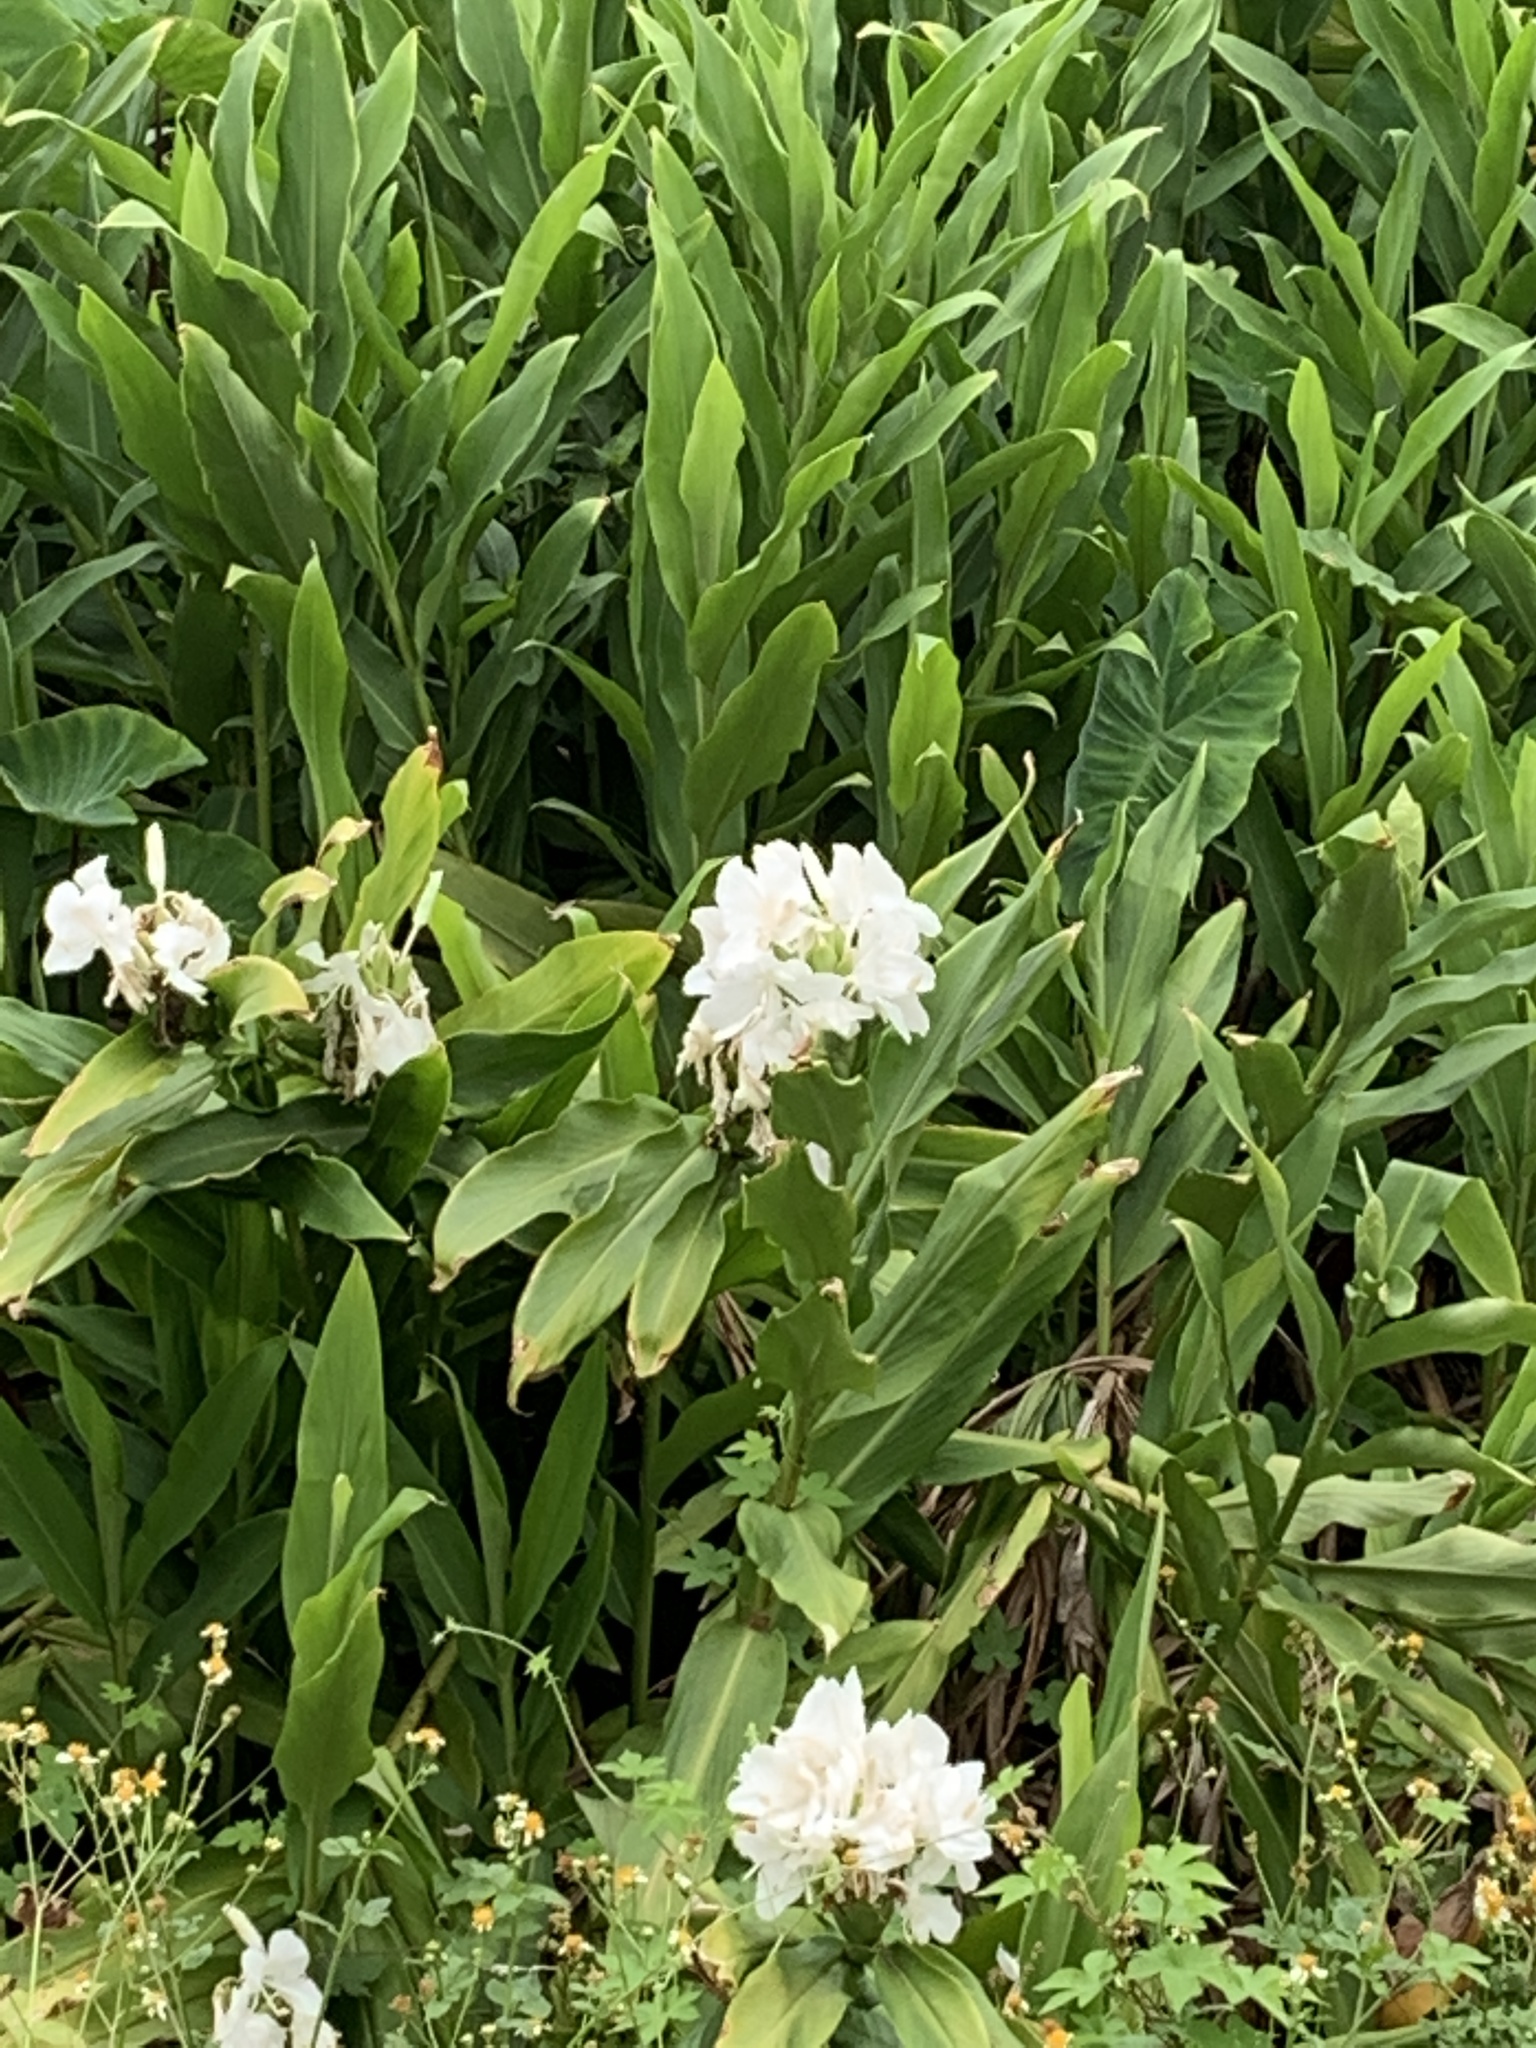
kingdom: Plantae
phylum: Tracheophyta
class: Liliopsida
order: Zingiberales
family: Zingiberaceae
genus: Hedychium
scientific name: Hedychium coronarium
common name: White garland-lily
